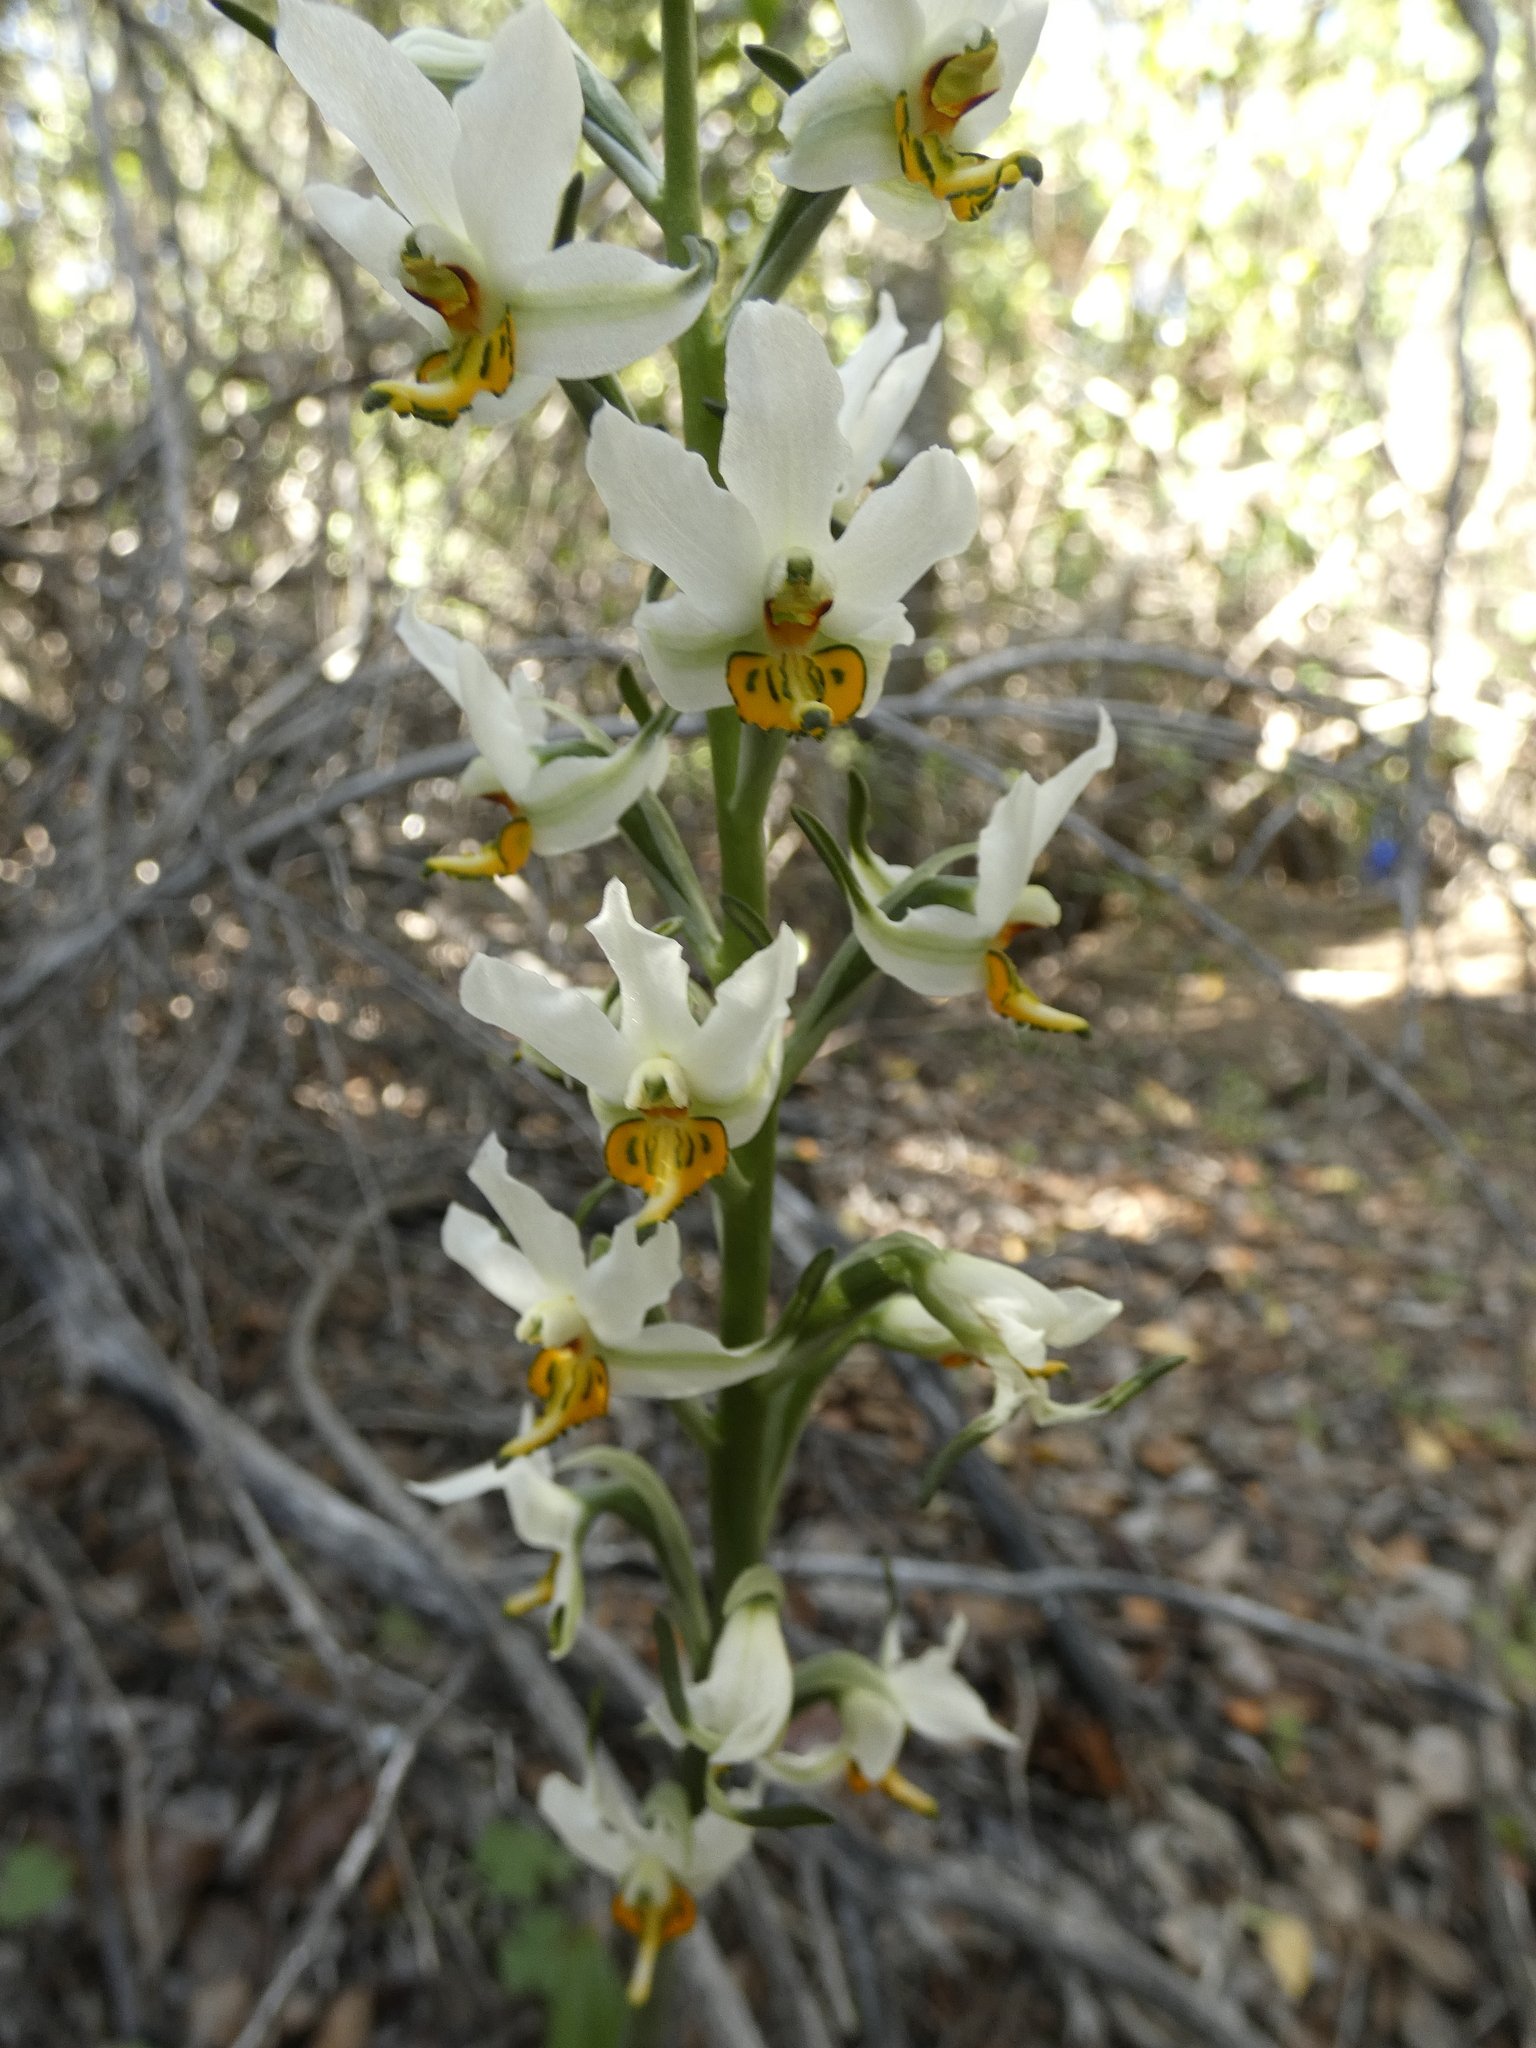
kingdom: Plantae
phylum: Tracheophyta
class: Liliopsida
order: Asparagales
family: Orchidaceae
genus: Gavilea
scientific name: Gavilea longibracteata
